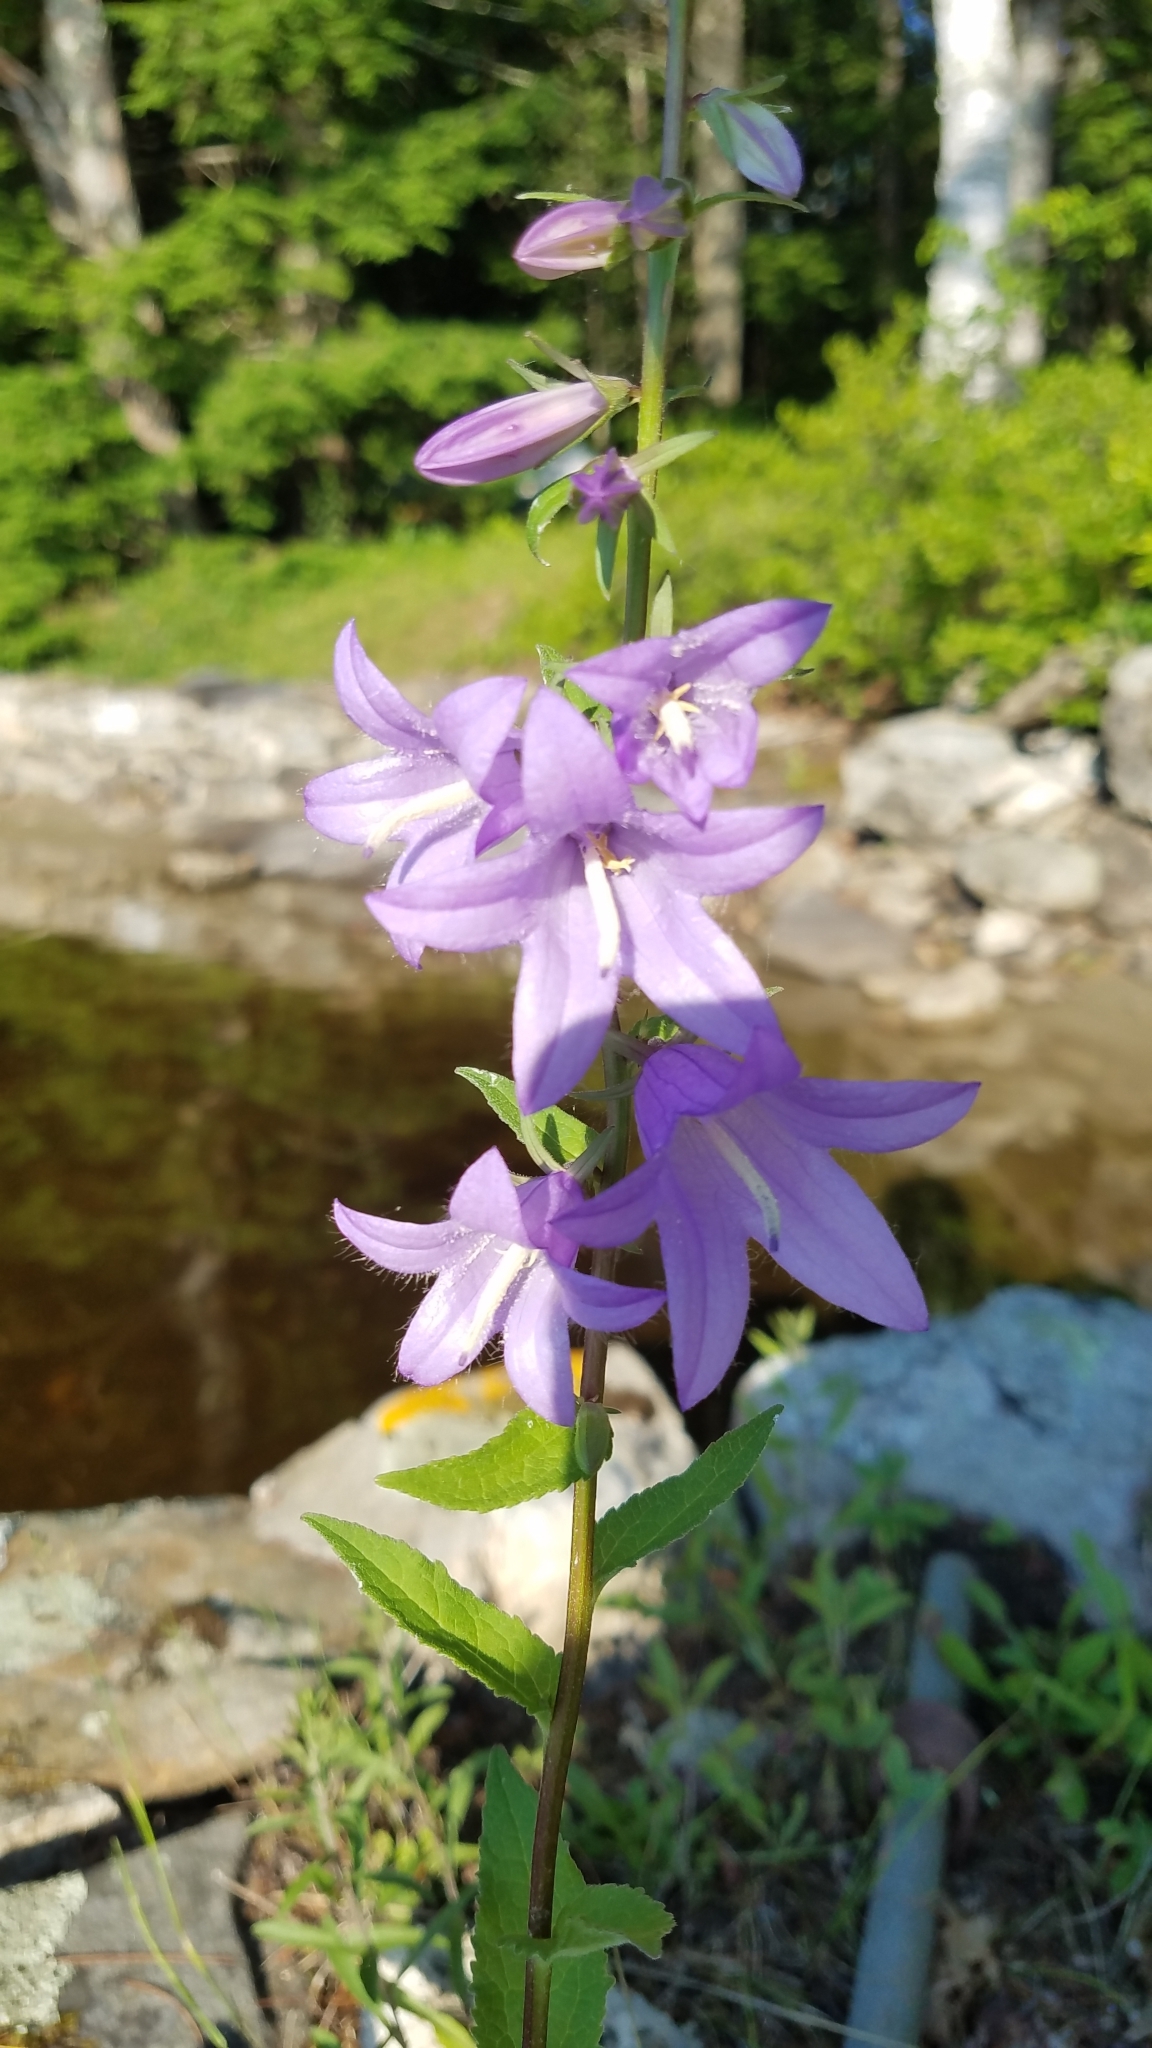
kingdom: Plantae
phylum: Tracheophyta
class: Magnoliopsida
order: Asterales
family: Campanulaceae
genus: Campanula
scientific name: Campanula rapunculoides
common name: Creeping bellflower
